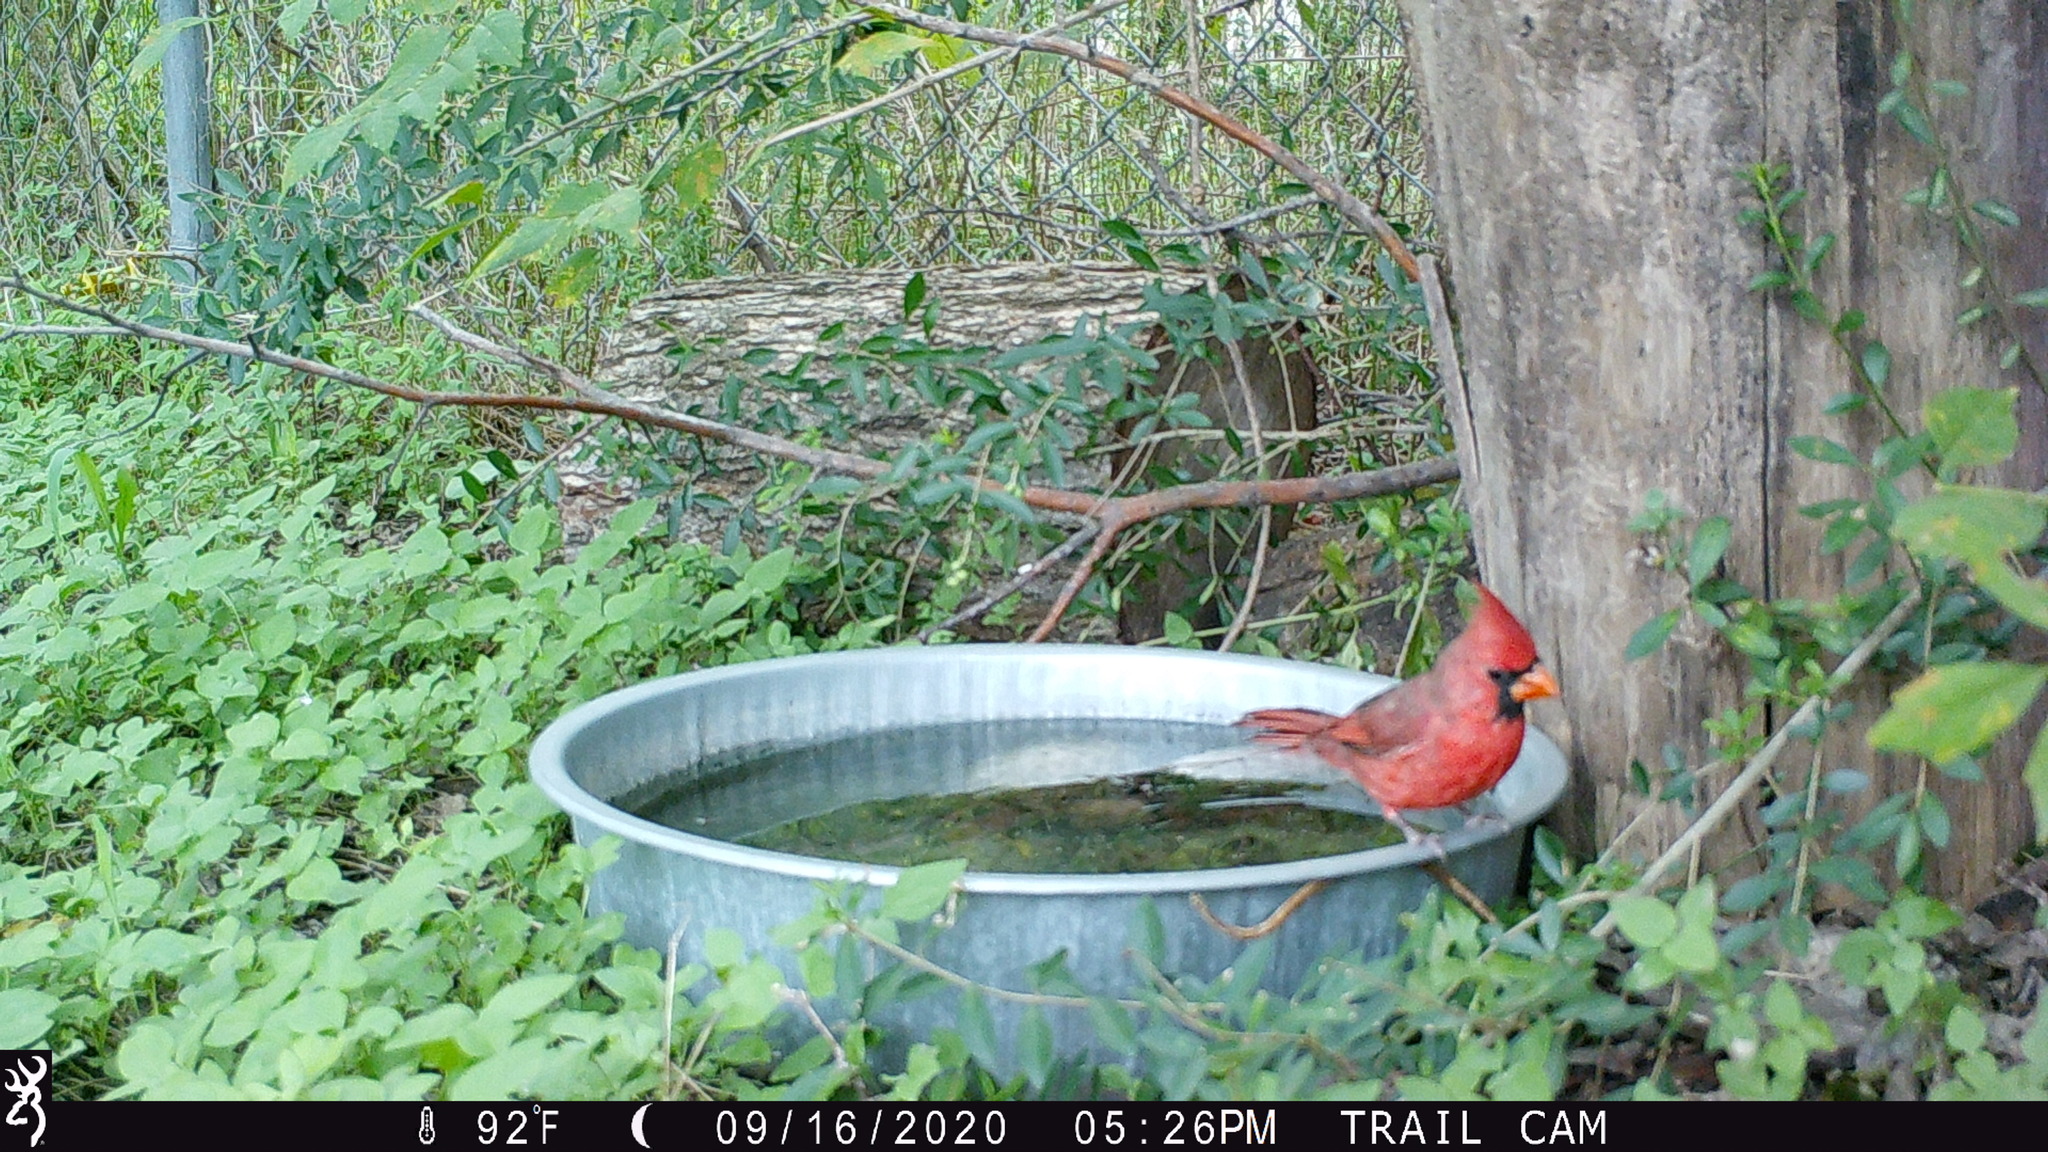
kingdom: Animalia
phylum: Chordata
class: Aves
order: Passeriformes
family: Cardinalidae
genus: Cardinalis
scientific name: Cardinalis cardinalis
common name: Northern cardinal
